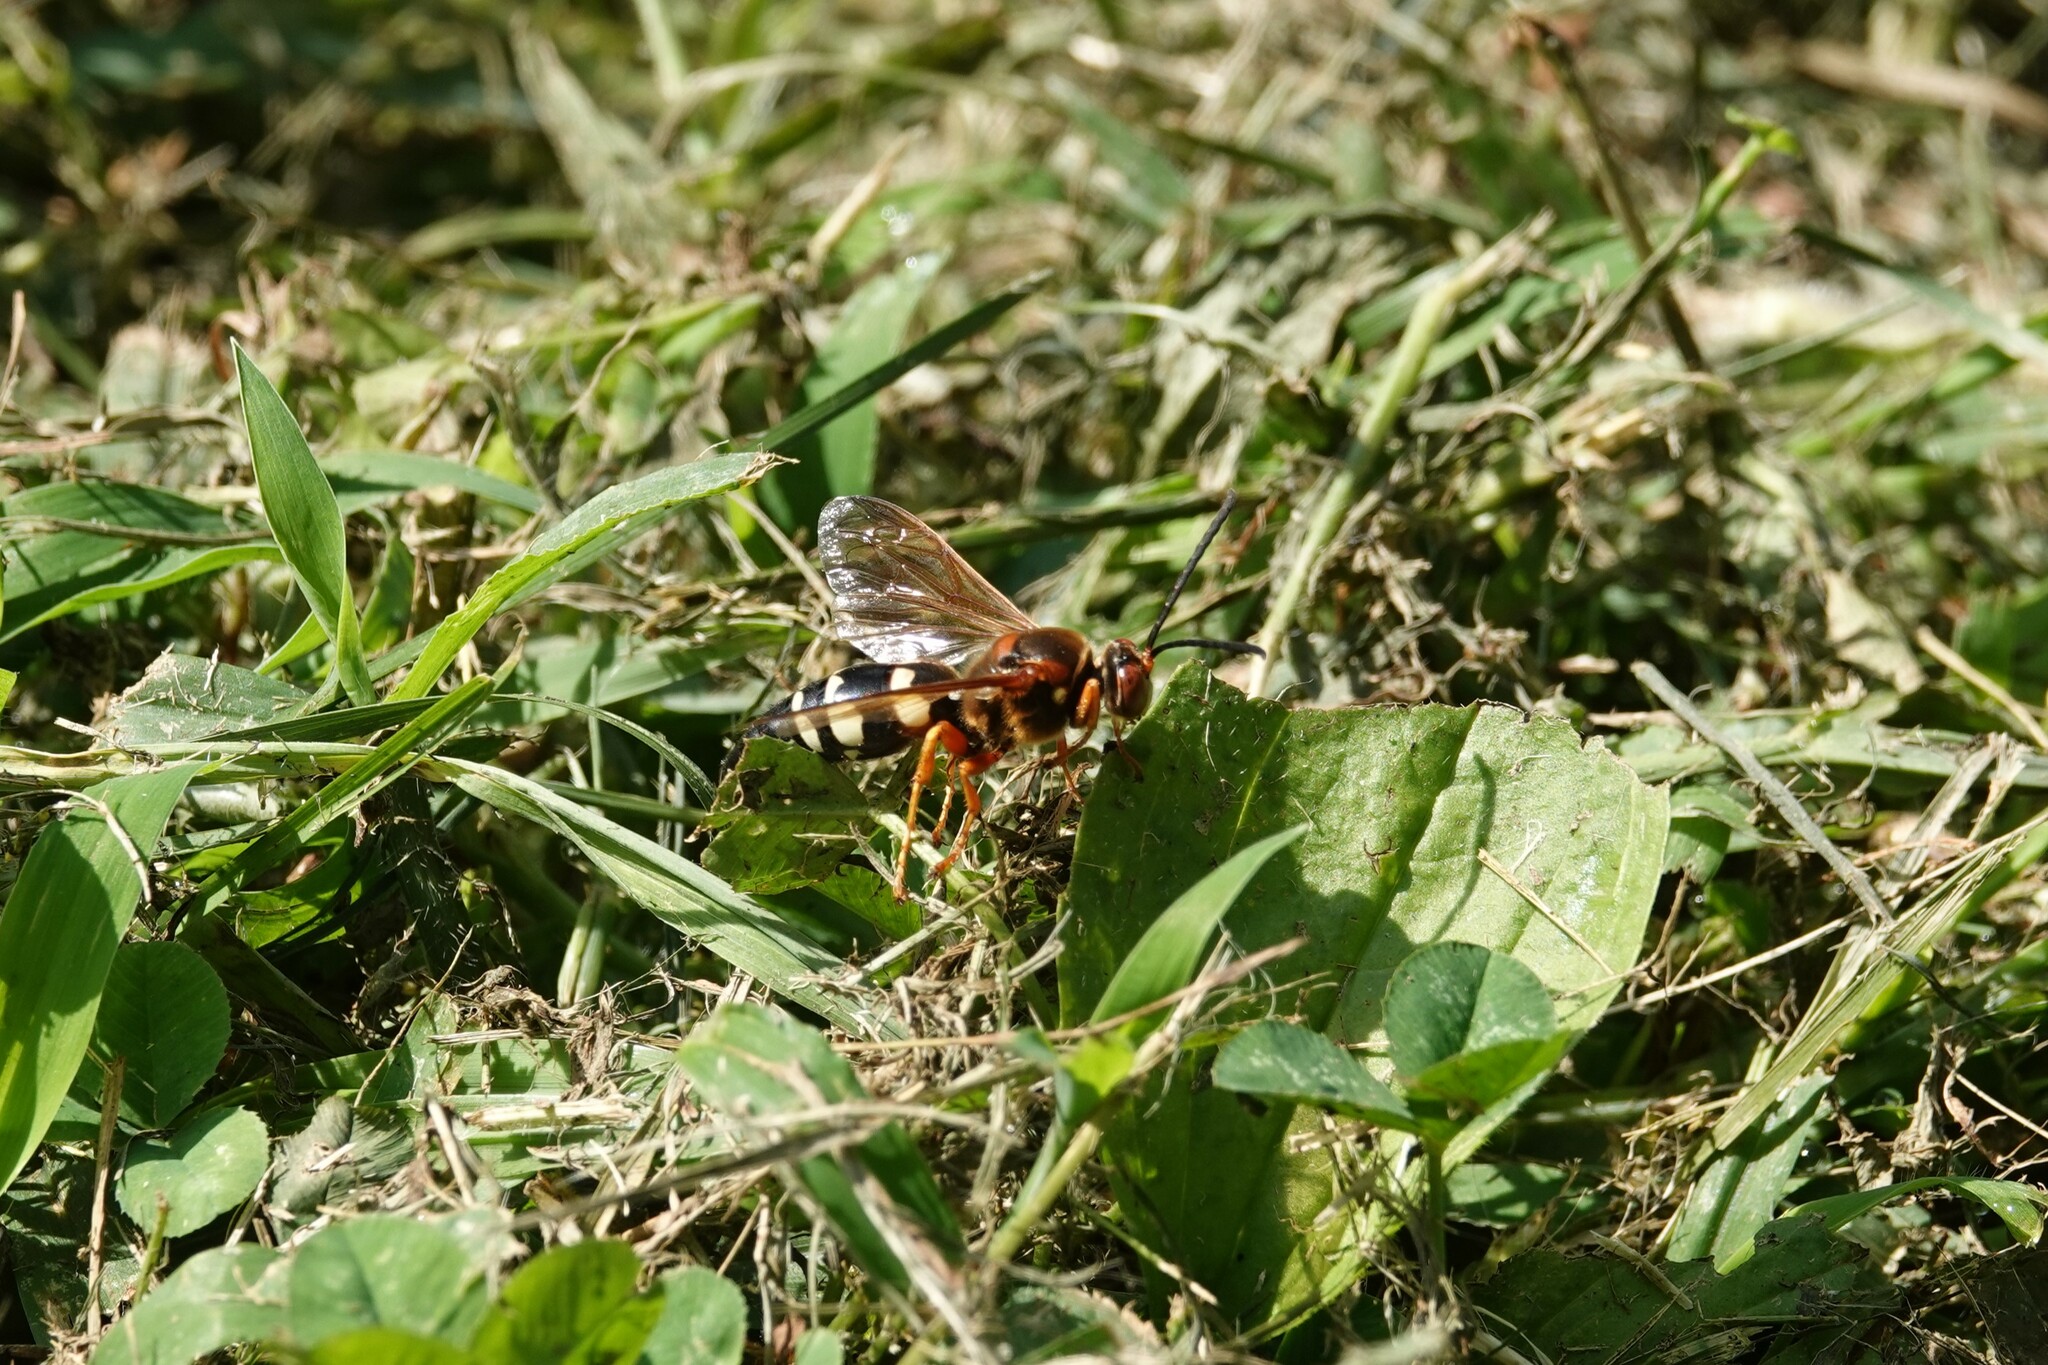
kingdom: Animalia
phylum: Arthropoda
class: Insecta
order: Hymenoptera
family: Crabronidae
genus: Sphecius
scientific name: Sphecius speciosus
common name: Cicada killer
